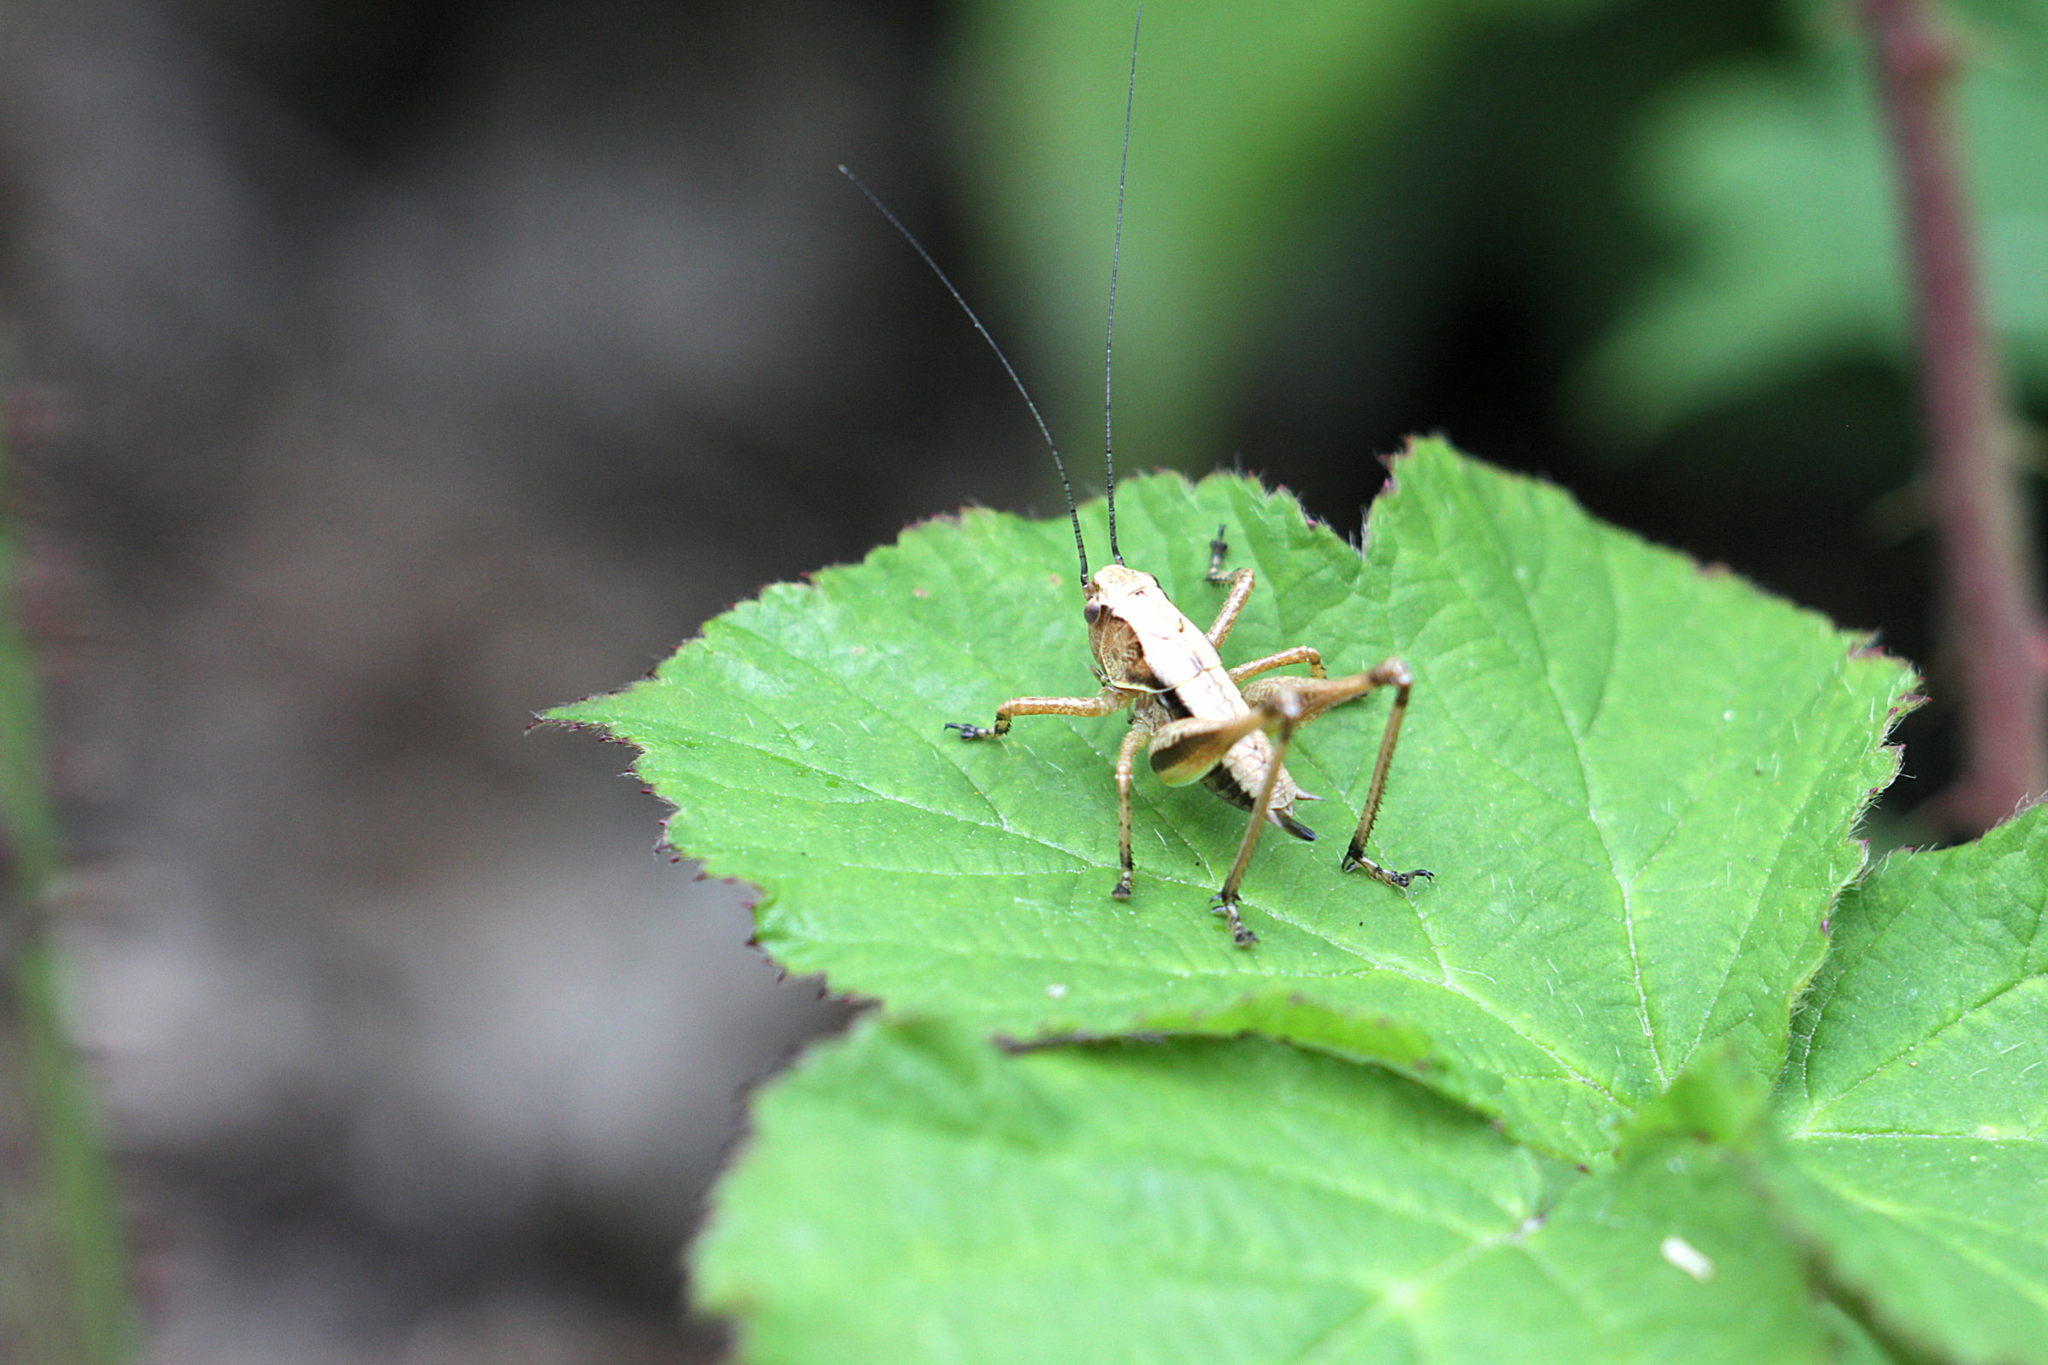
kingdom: Animalia
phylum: Arthropoda
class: Insecta
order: Orthoptera
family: Tettigoniidae
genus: Pholidoptera
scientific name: Pholidoptera griseoaptera
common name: Dark bush-cricket
